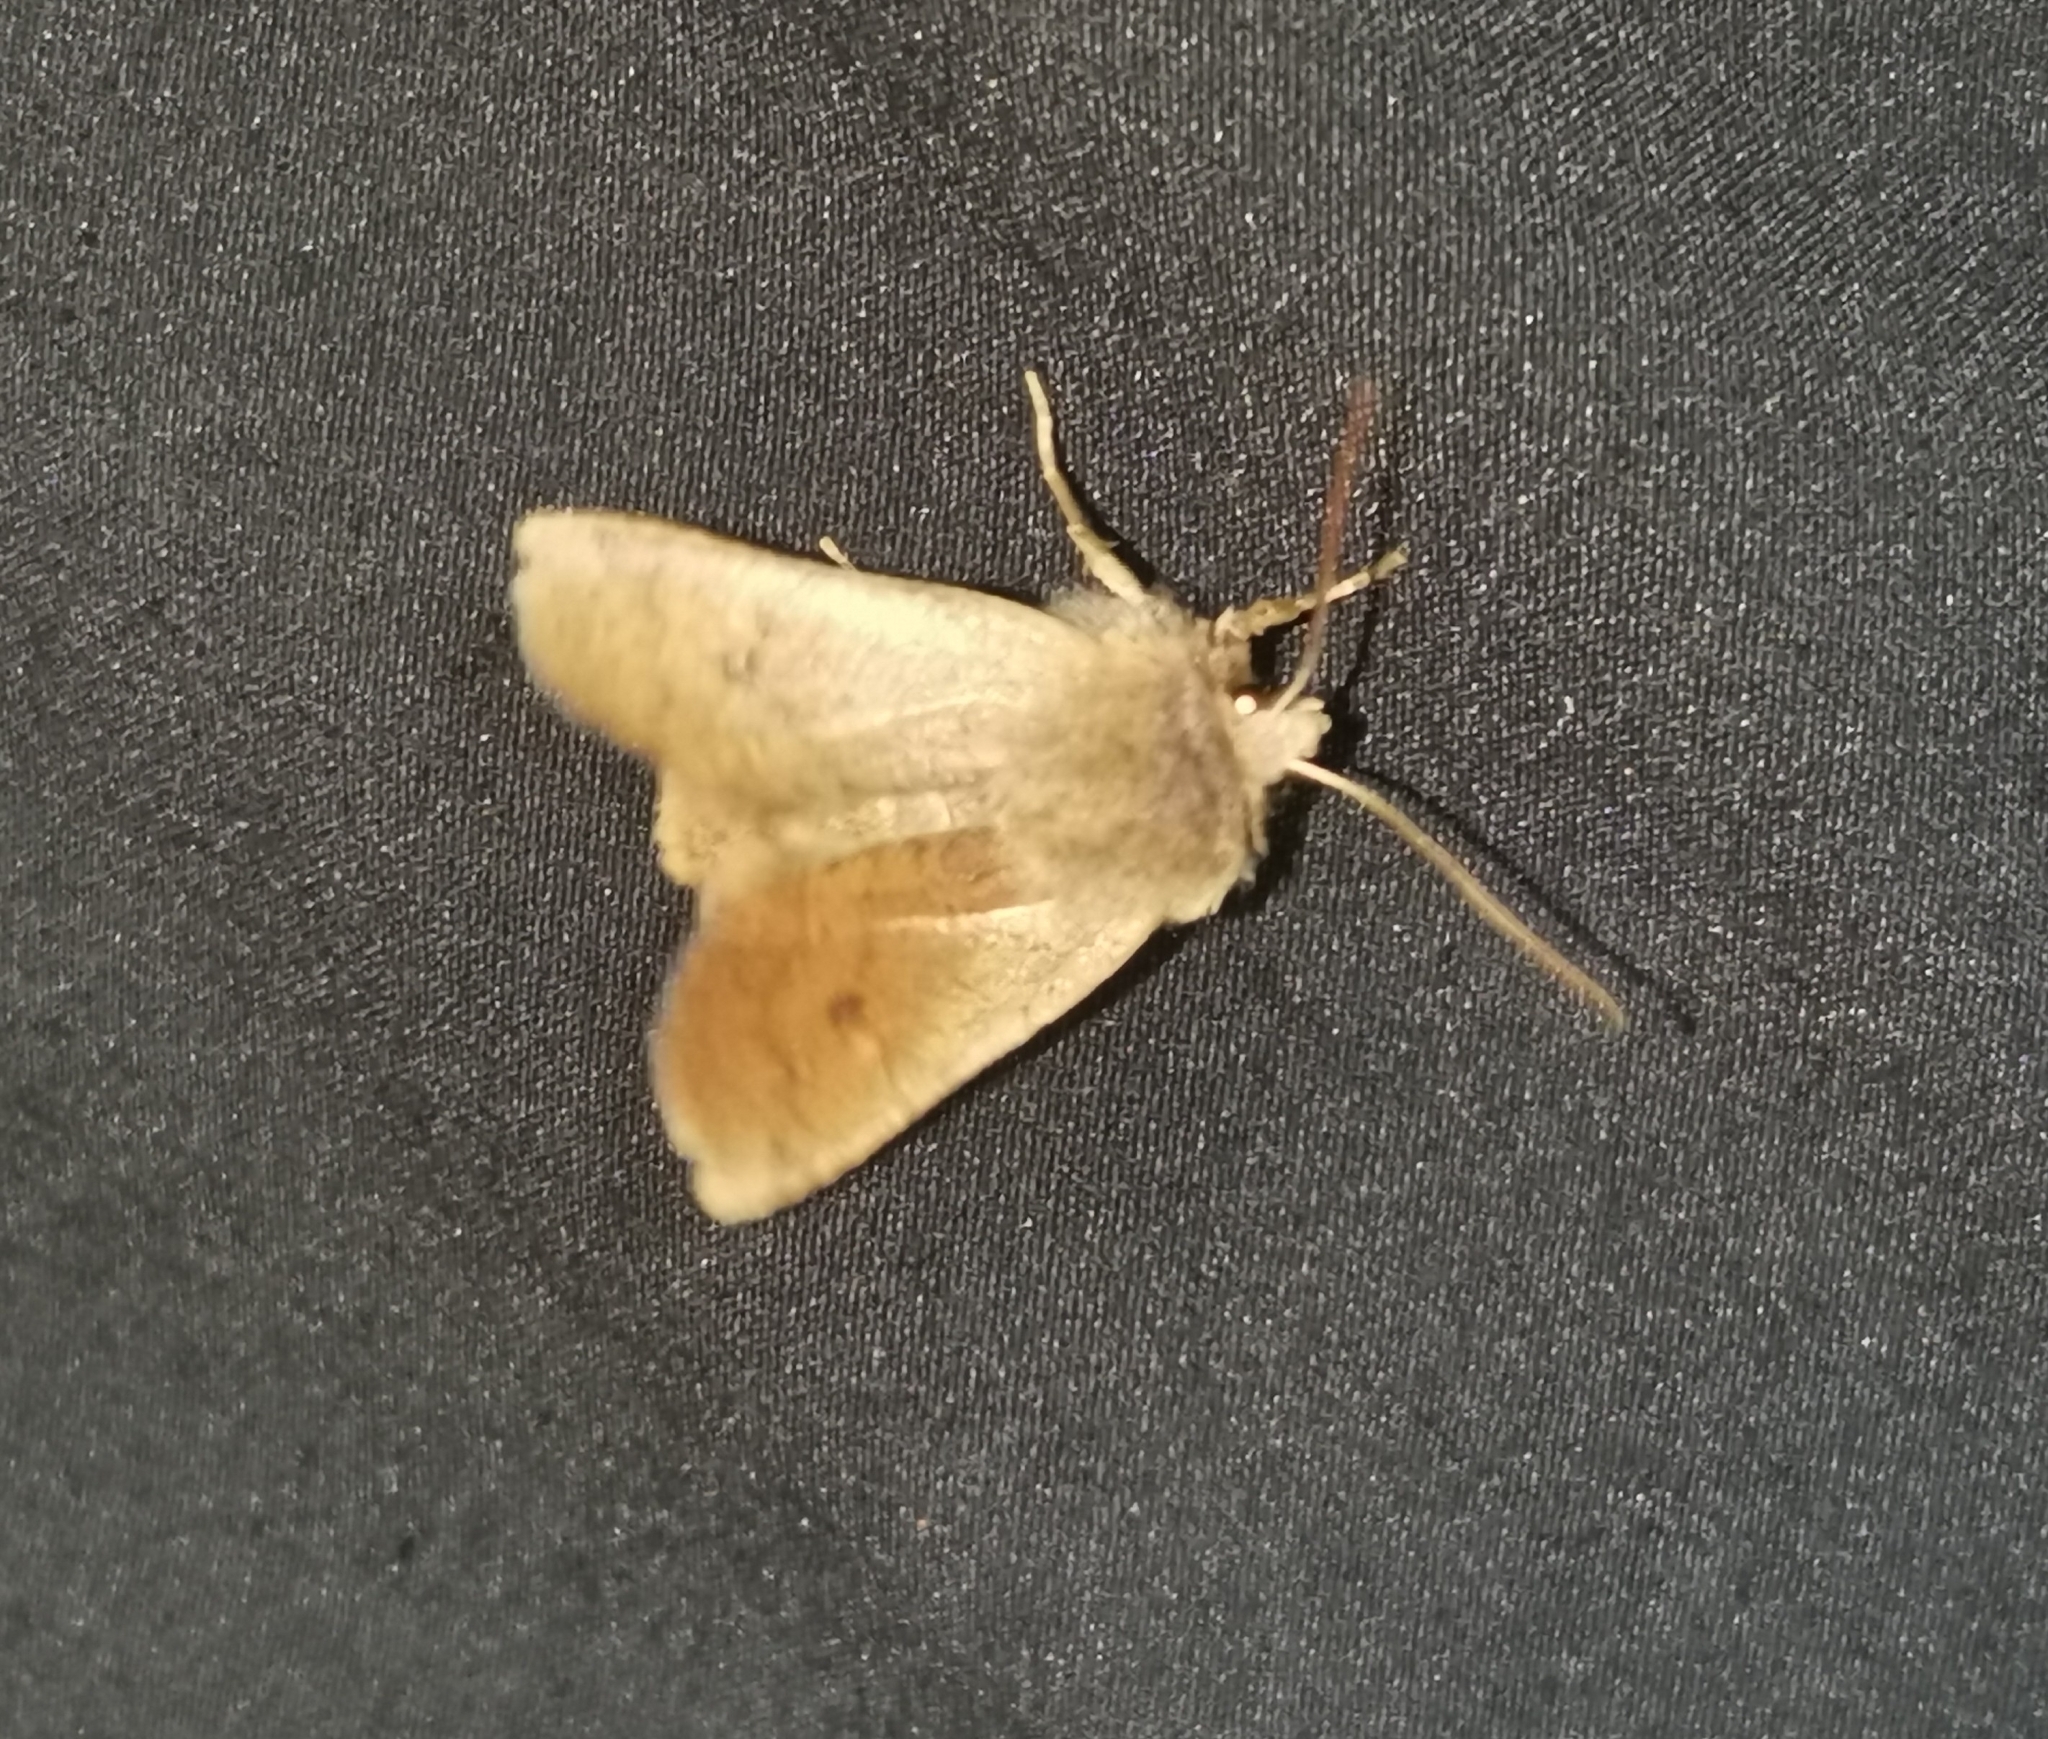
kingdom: Animalia
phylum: Arthropoda
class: Insecta
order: Lepidoptera
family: Noctuidae
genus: Conistra
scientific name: Conistra vaccinii
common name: Chestnut
